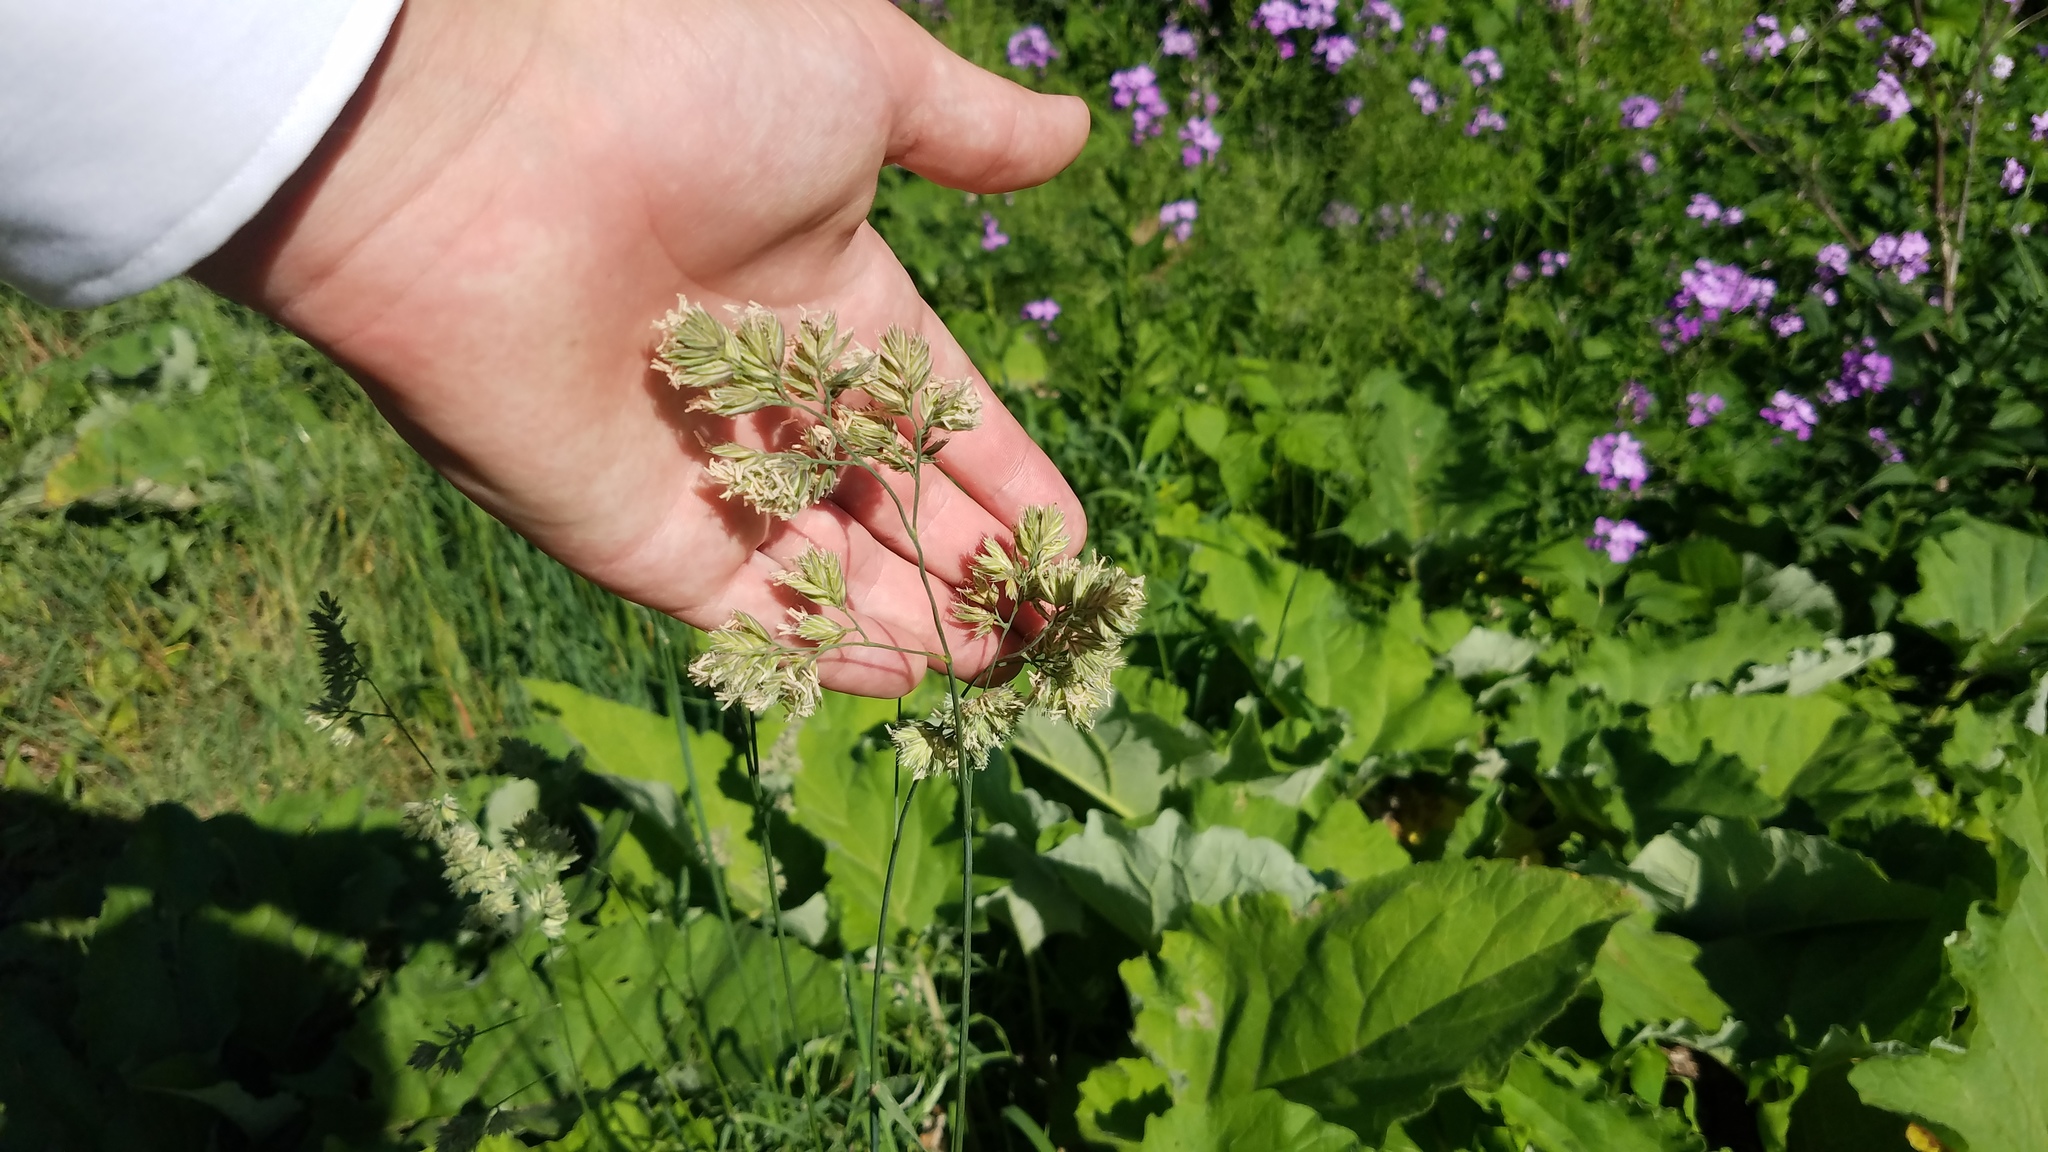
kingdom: Plantae
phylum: Tracheophyta
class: Liliopsida
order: Poales
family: Poaceae
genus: Dactylis
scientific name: Dactylis glomerata
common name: Orchardgrass
